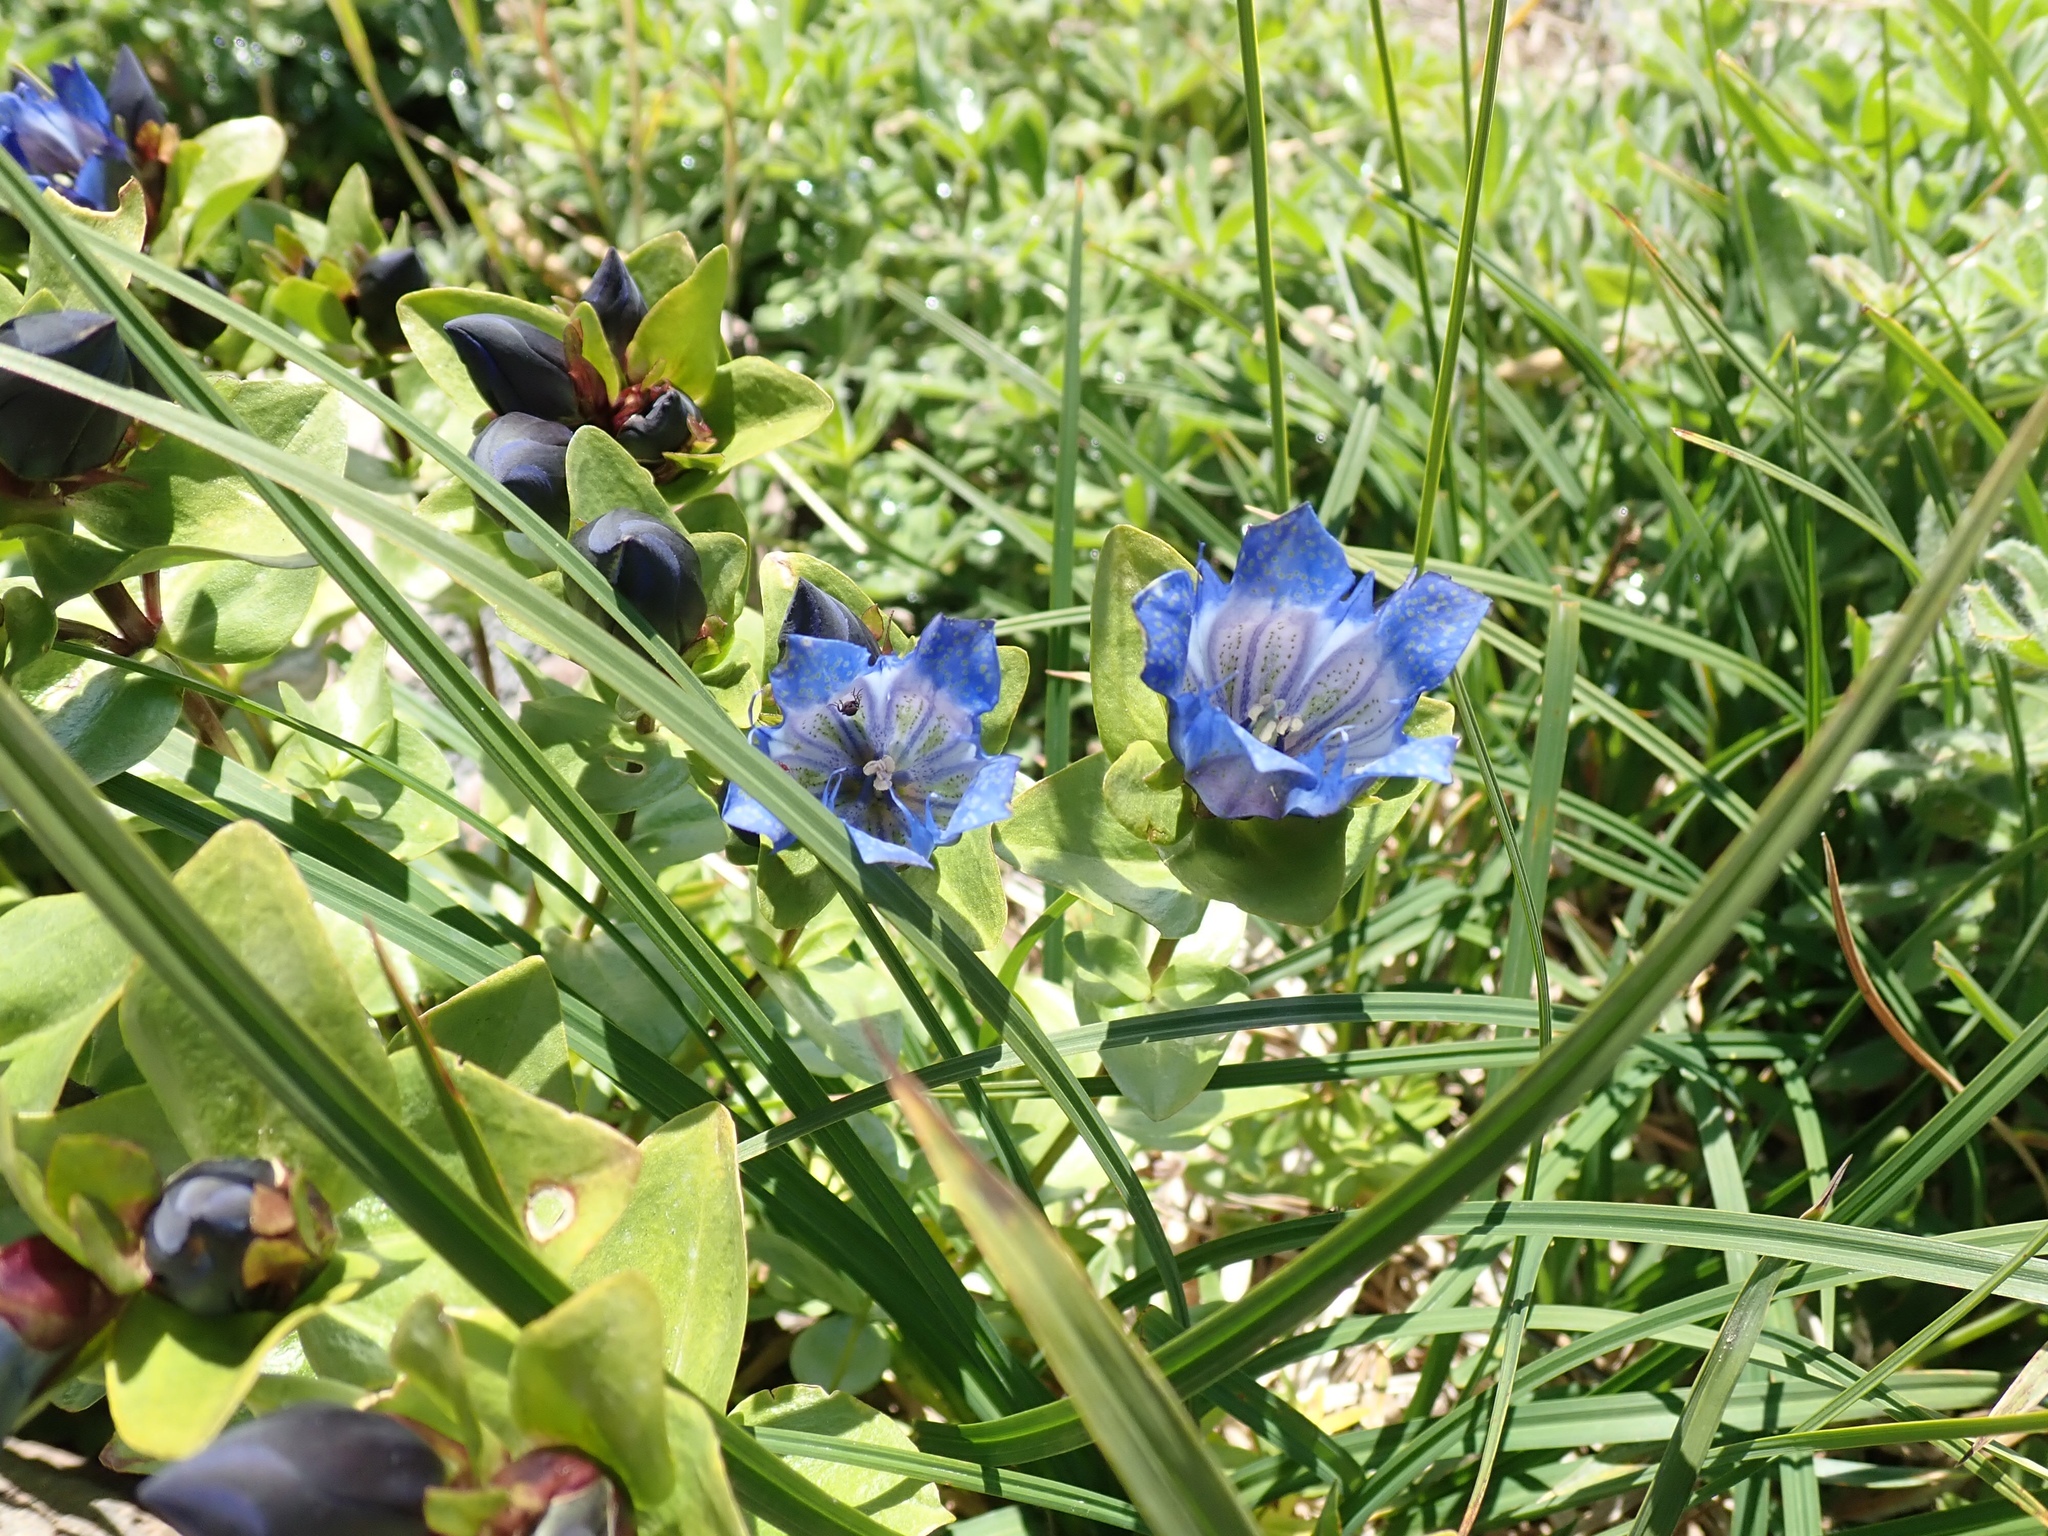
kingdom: Plantae
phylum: Tracheophyta
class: Magnoliopsida
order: Gentianales
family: Gentianaceae
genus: Gentiana
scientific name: Gentiana calycosa
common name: Rainier pleated gentian
